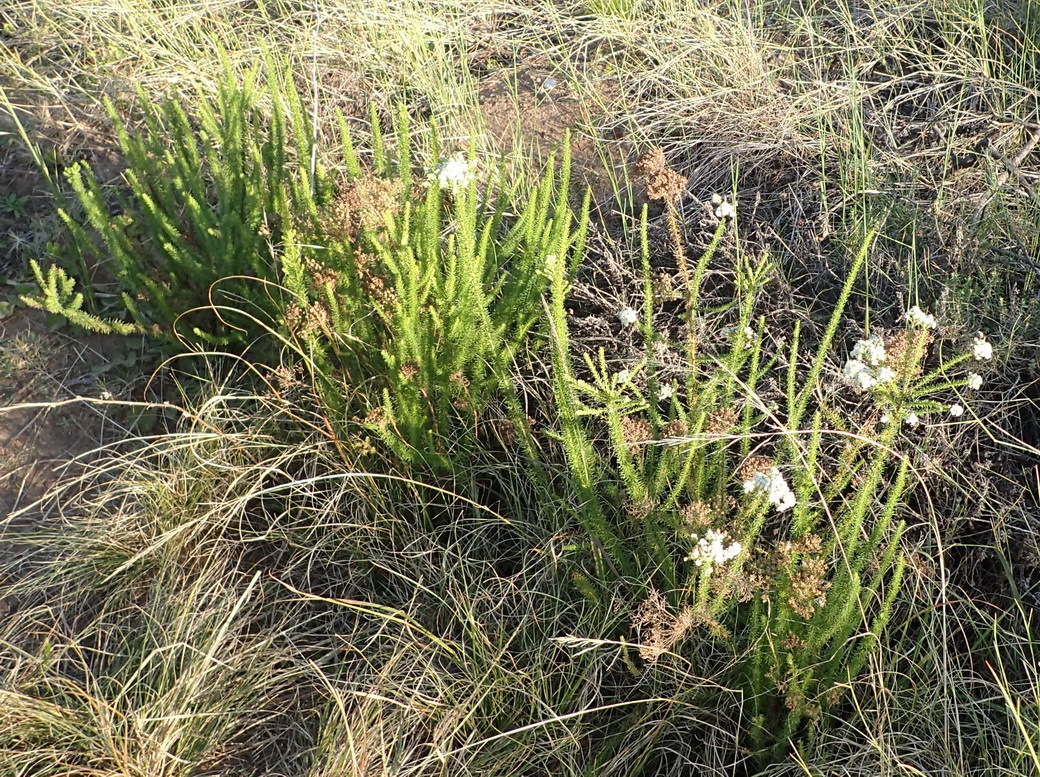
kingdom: Plantae
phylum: Tracheophyta
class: Magnoliopsida
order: Lamiales
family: Scrophulariaceae
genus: Selago
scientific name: Selago corymbosa
